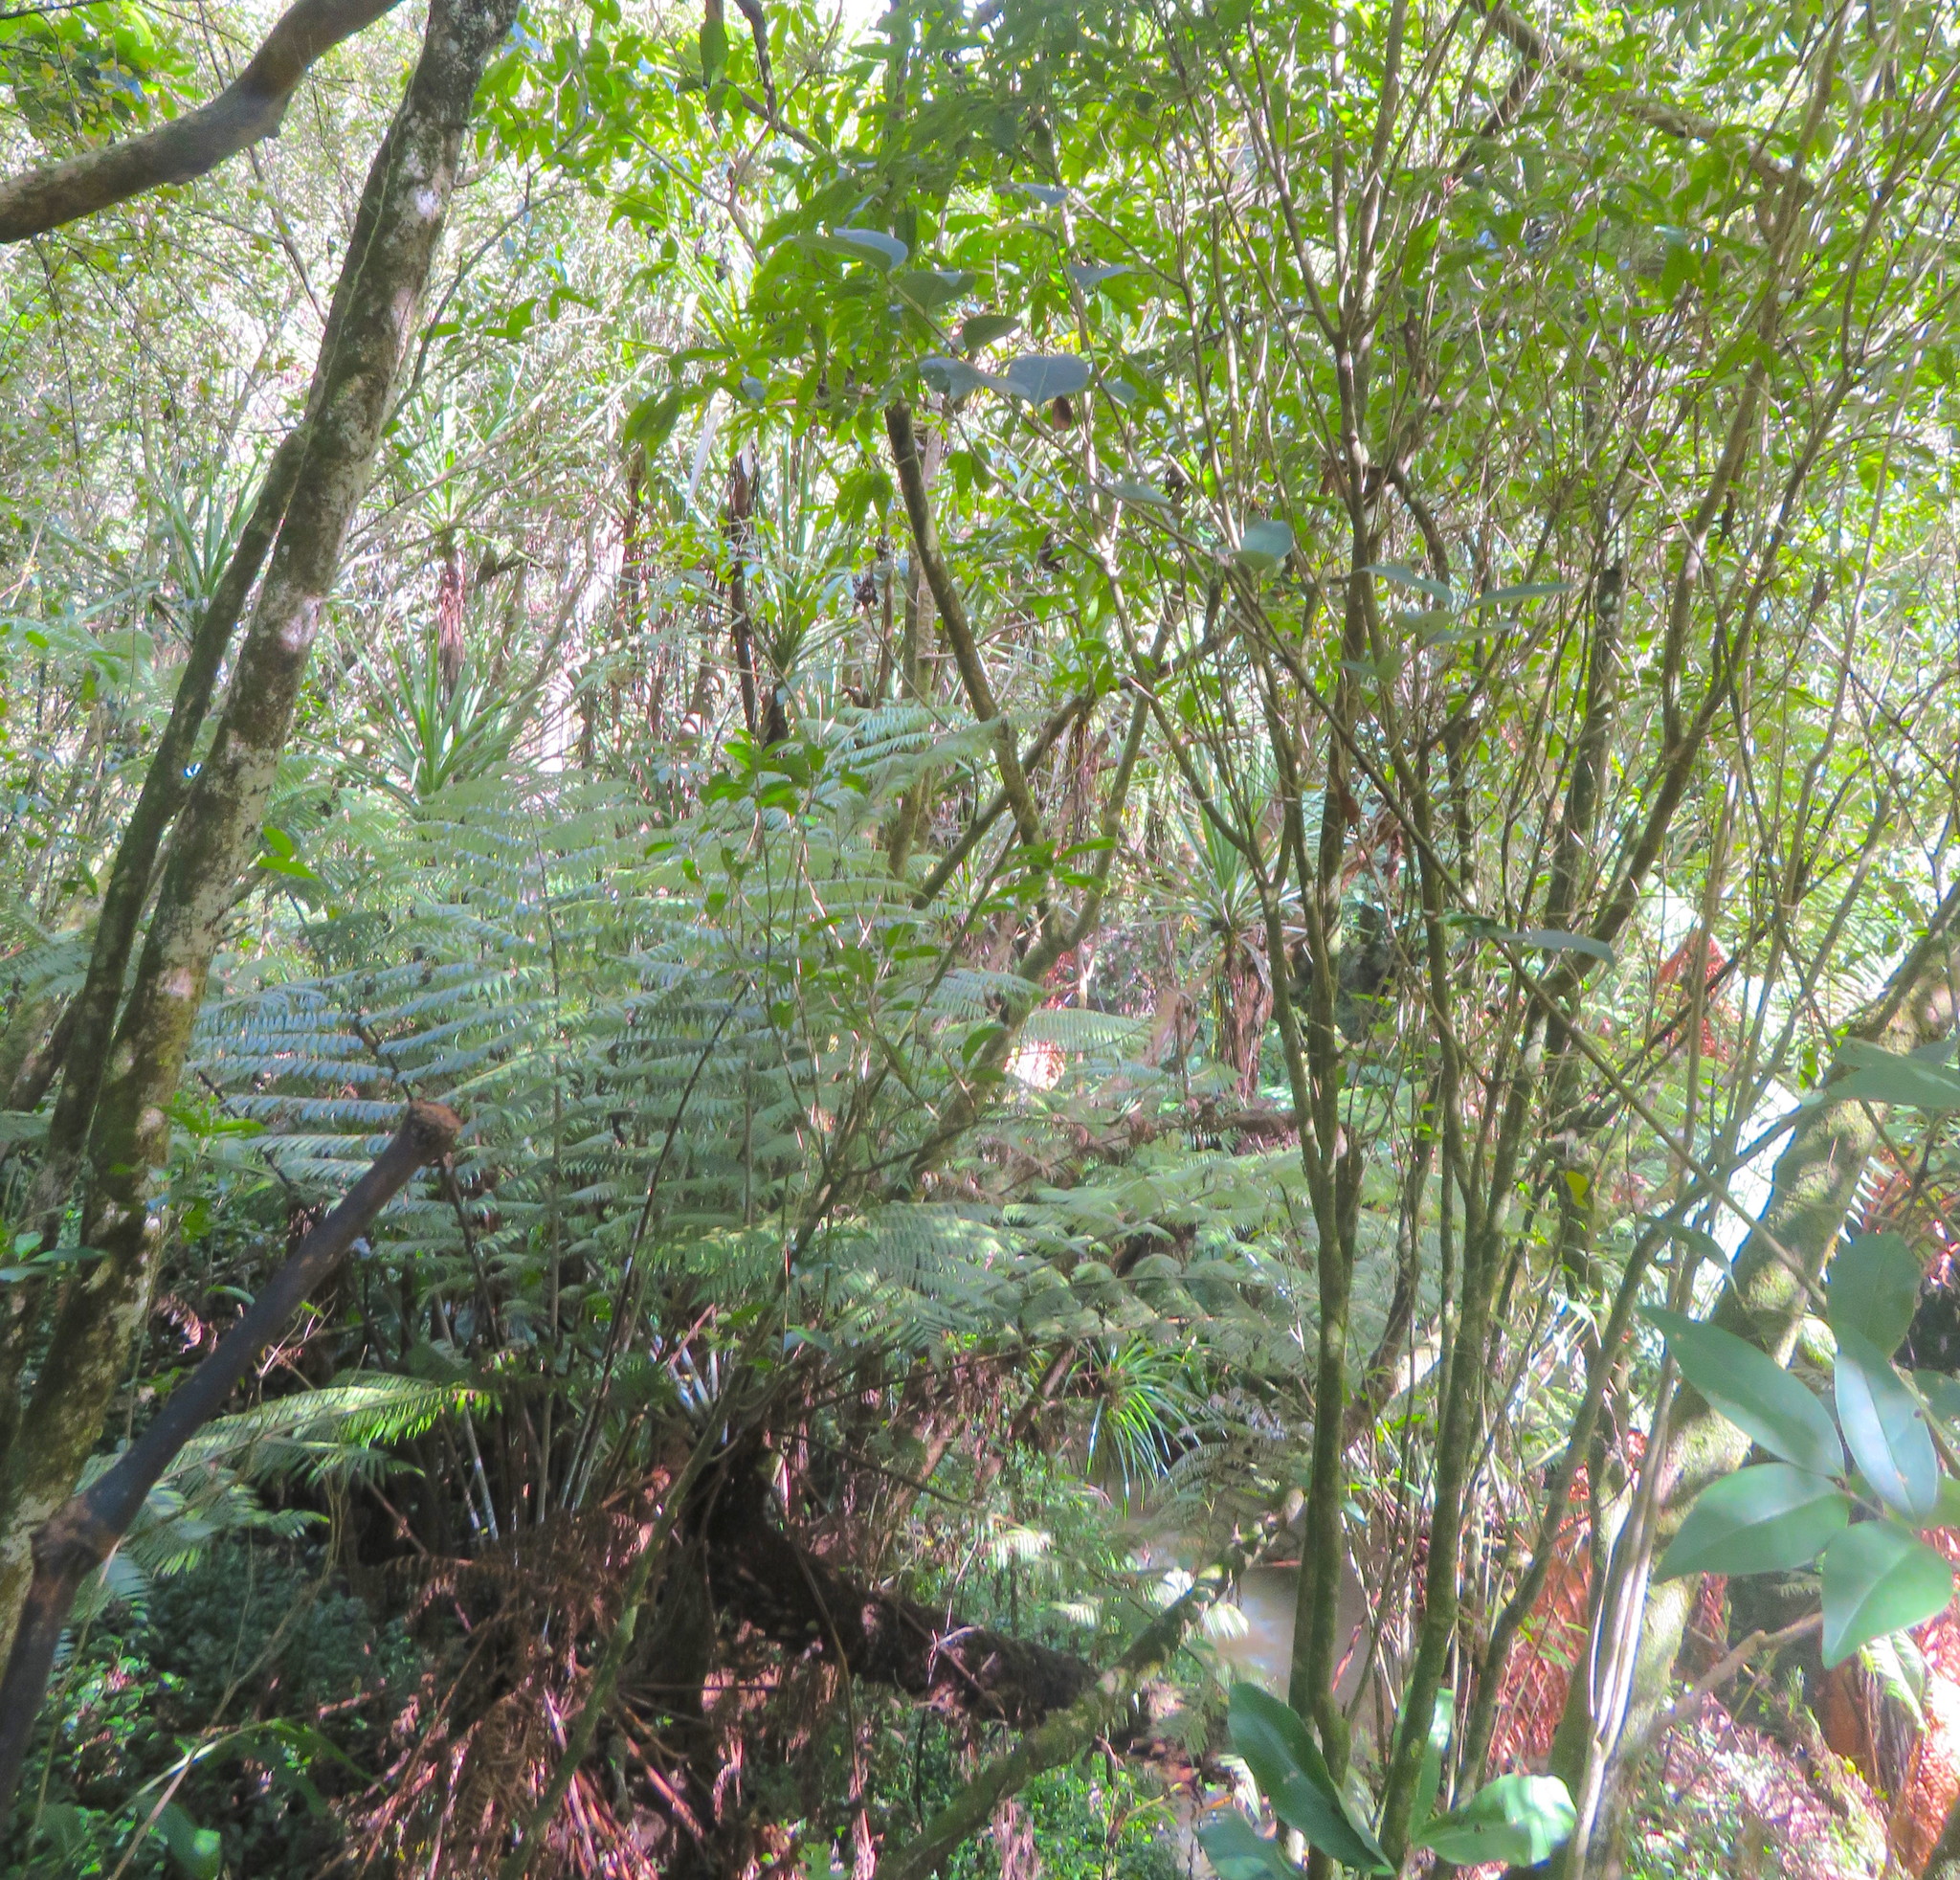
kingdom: Plantae
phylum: Tracheophyta
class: Polypodiopsida
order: Cyatheales
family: Cyatheaceae
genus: Alsophila
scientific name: Alsophila dealbata
